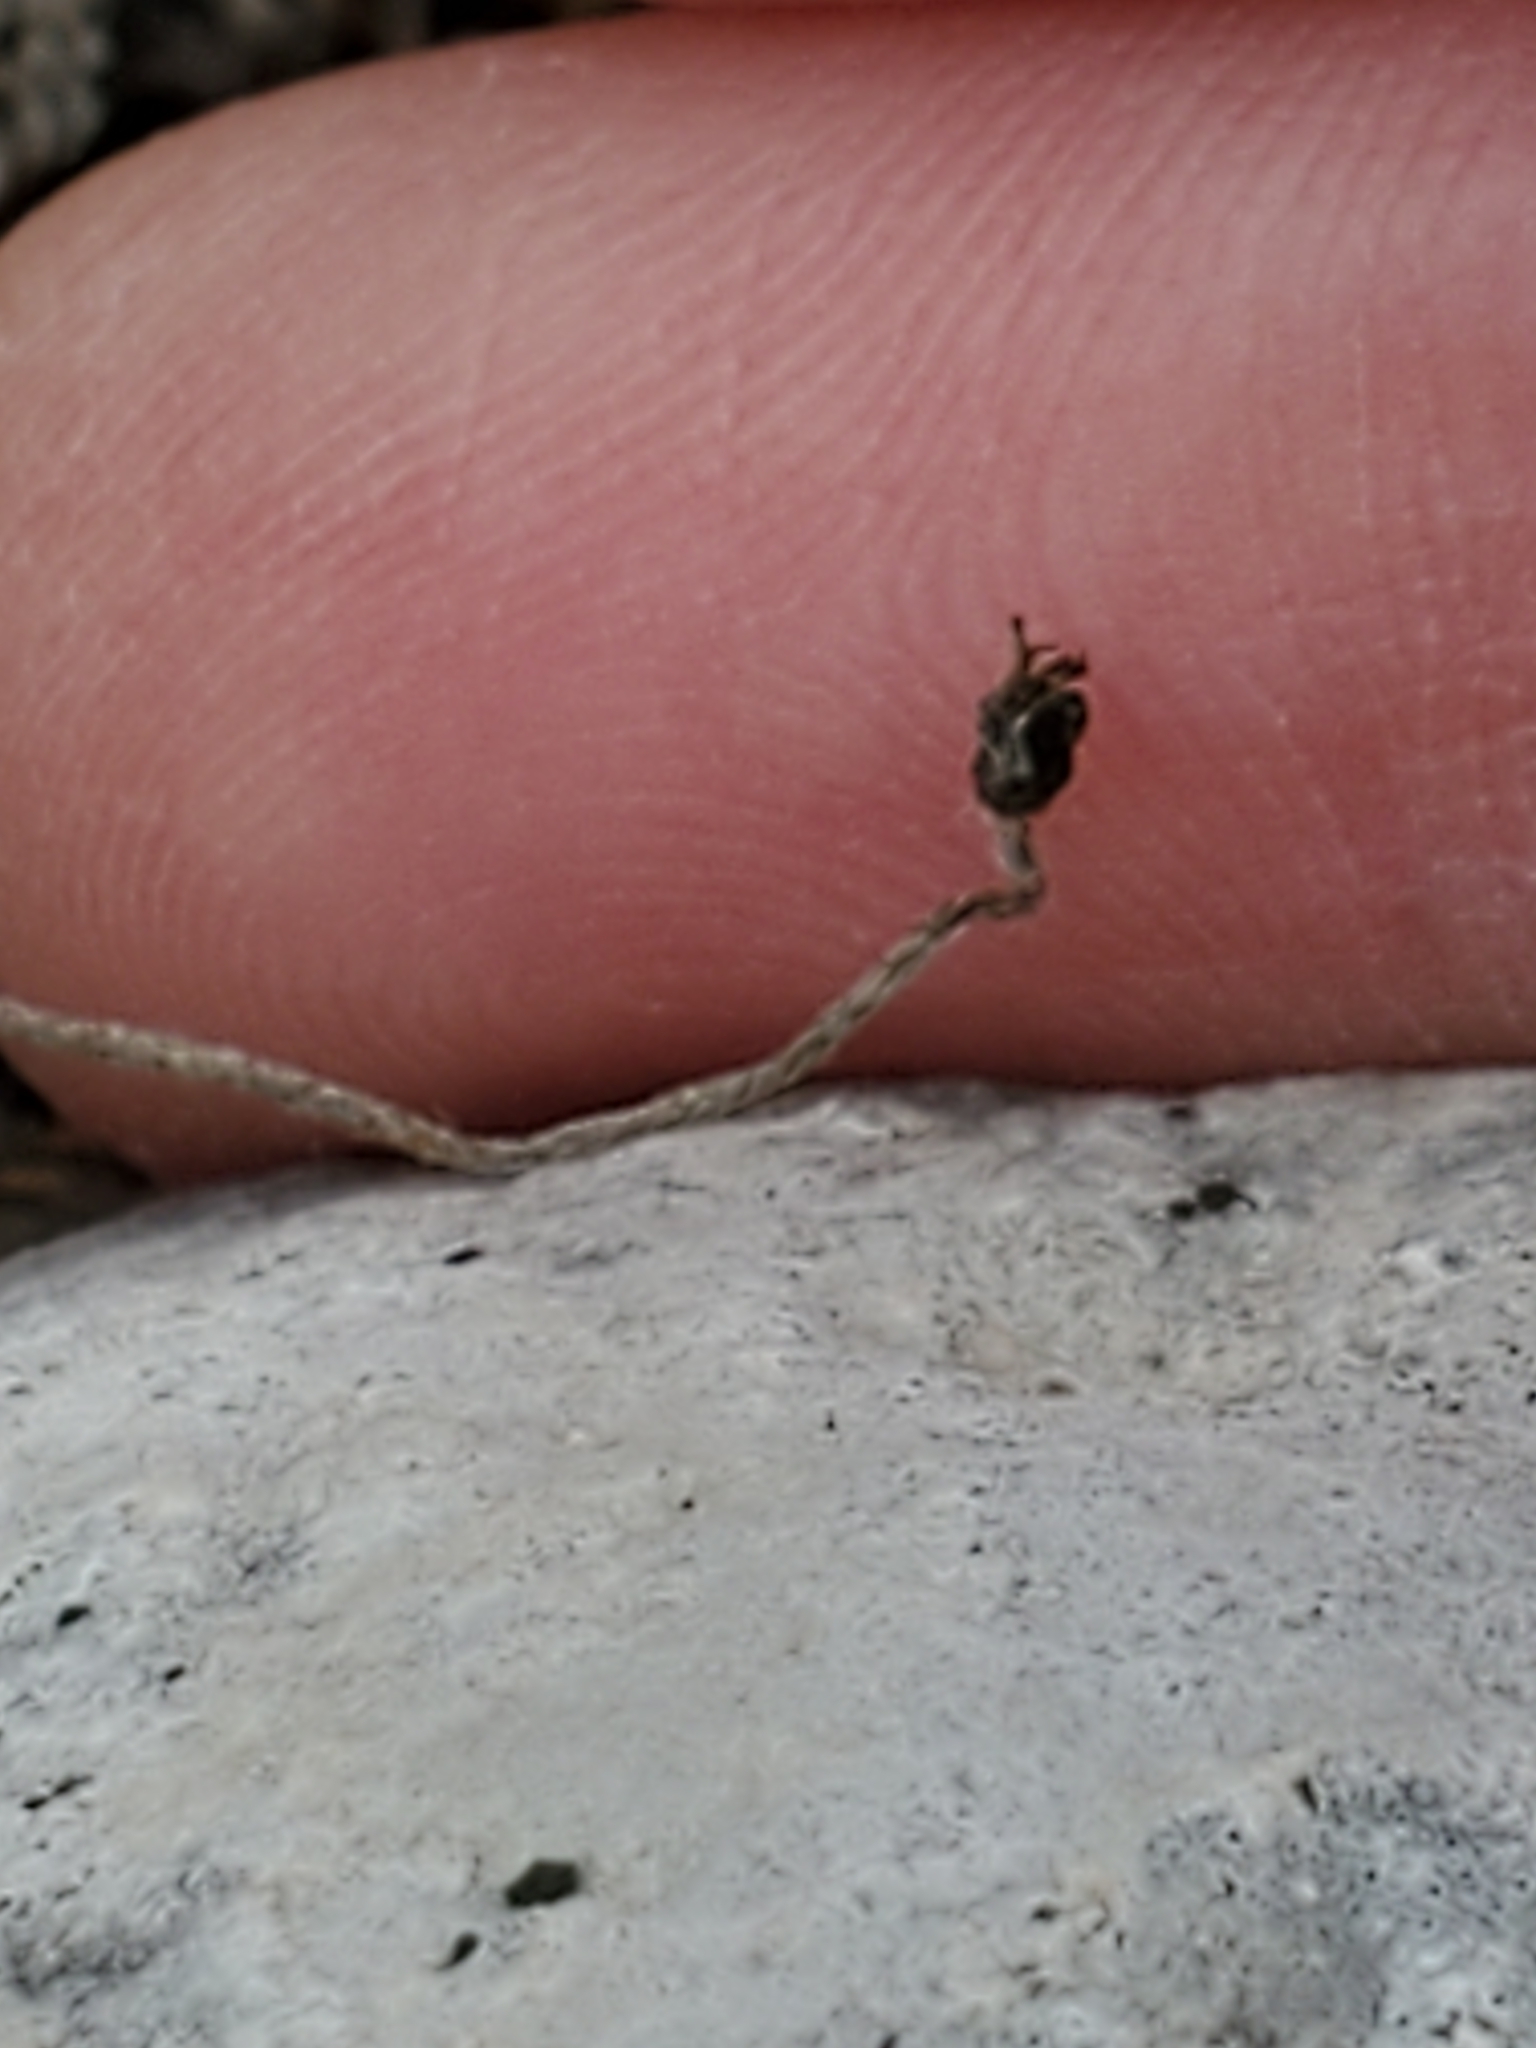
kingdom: Plantae
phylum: Tracheophyta
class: Magnoliopsida
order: Ranunculales
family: Ranunculaceae
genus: Anemone
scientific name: Anemone edwardsiana
